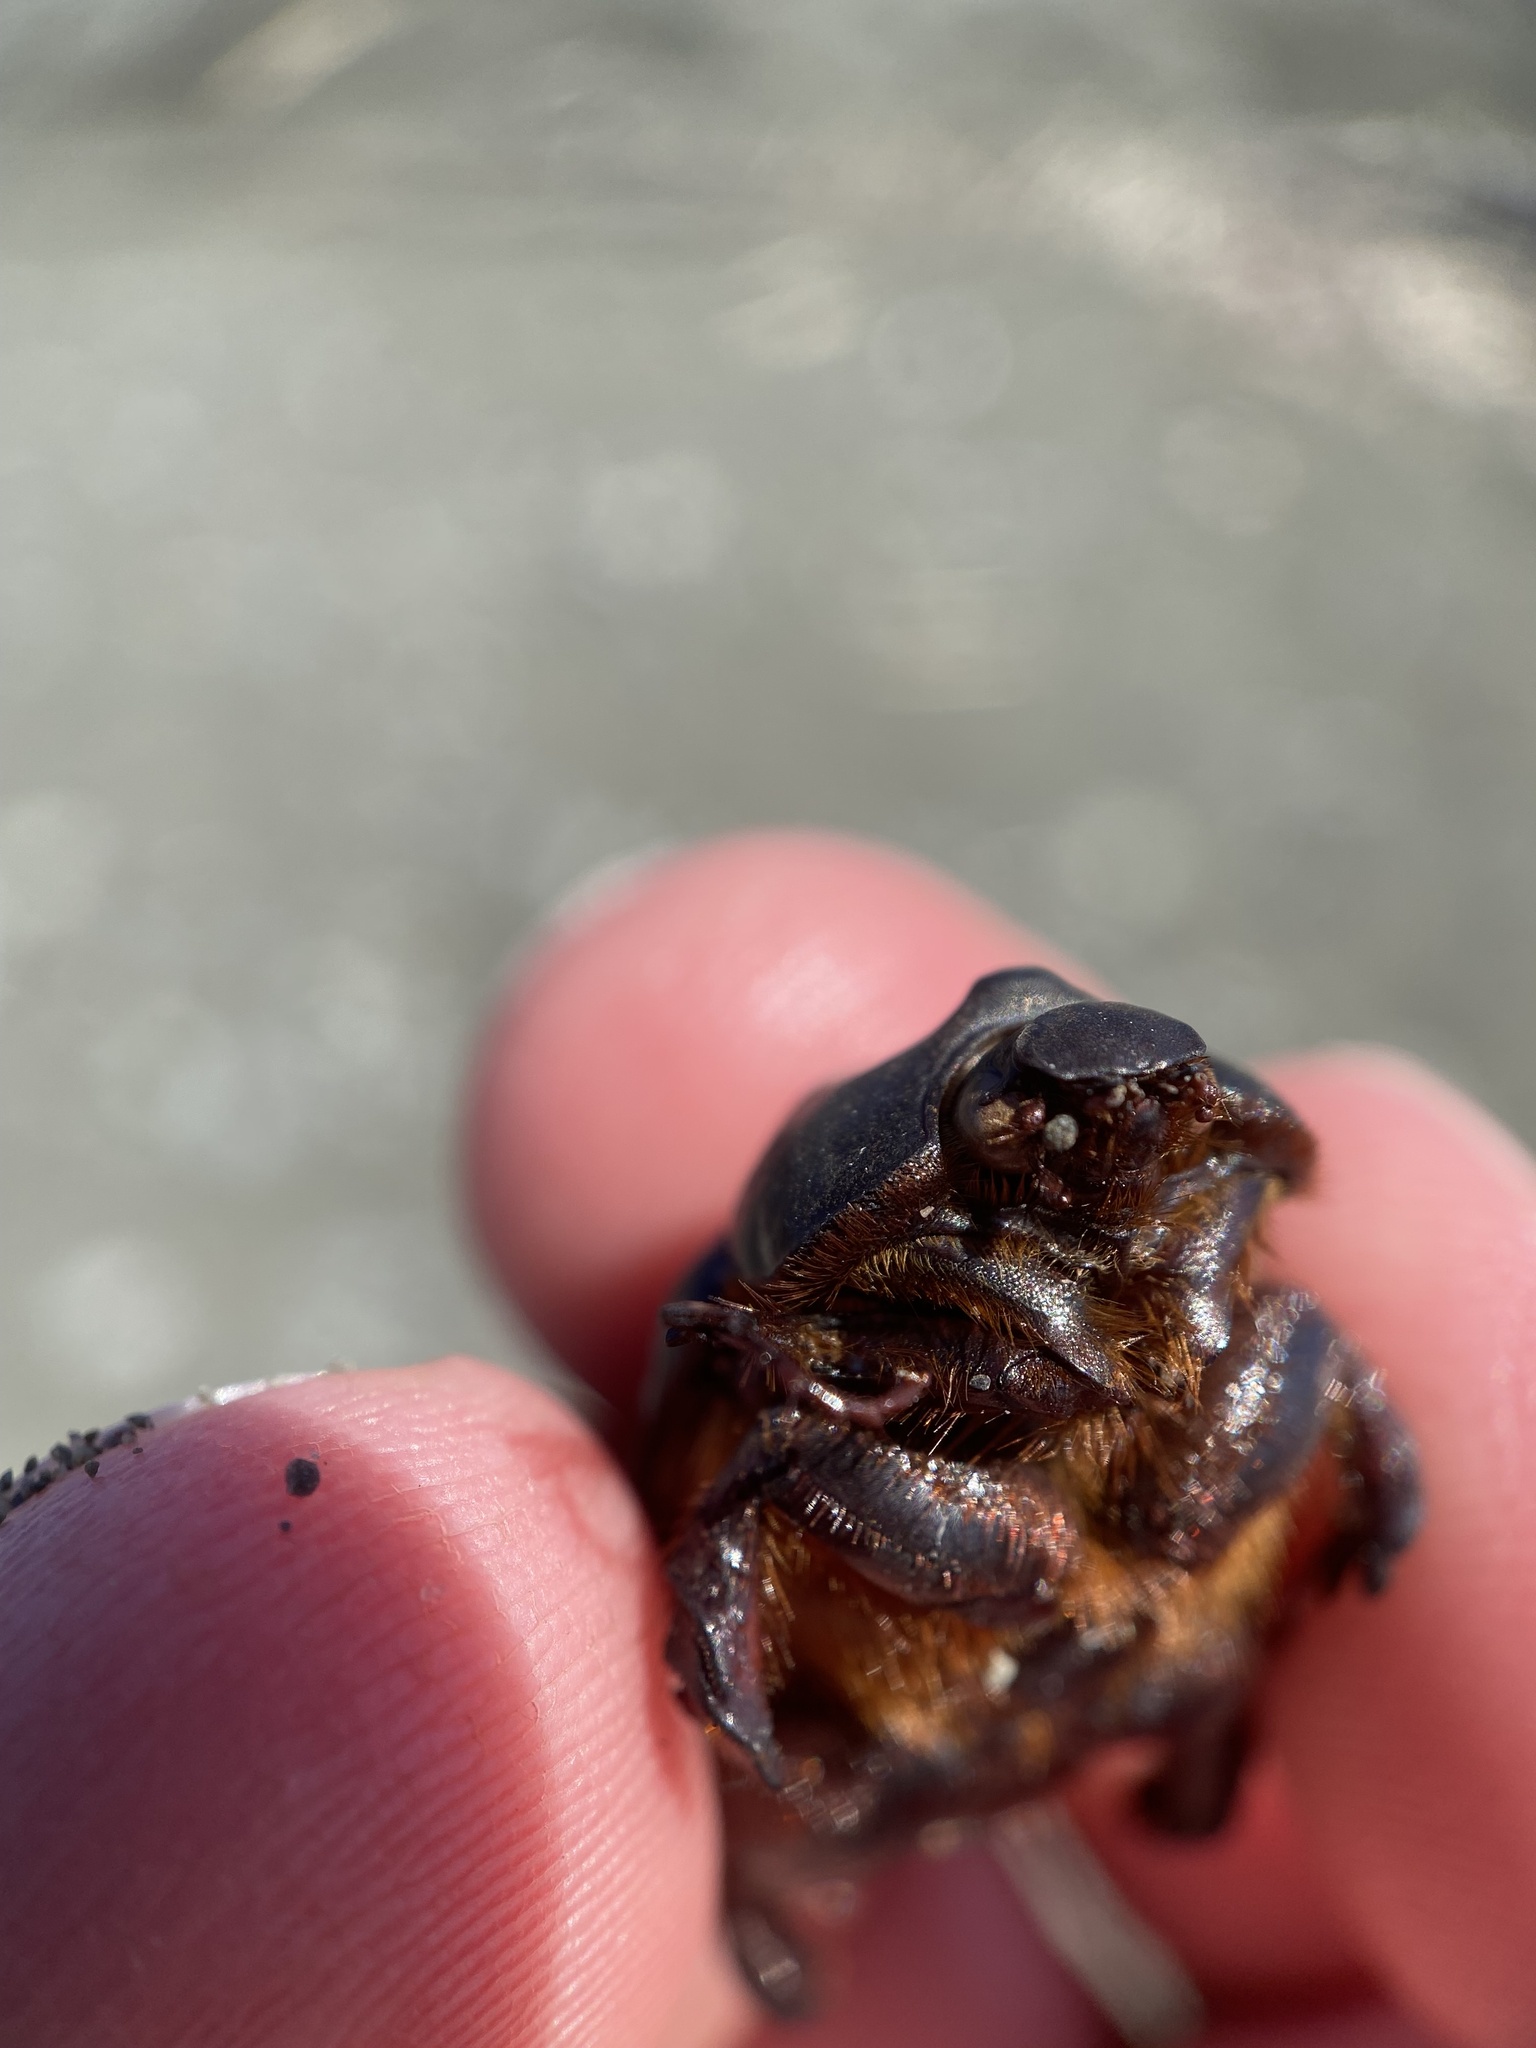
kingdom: Animalia
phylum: Arthropoda
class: Insecta
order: Coleoptera
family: Scarabaeidae
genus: Pericoptus
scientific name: Pericoptus truncatus
